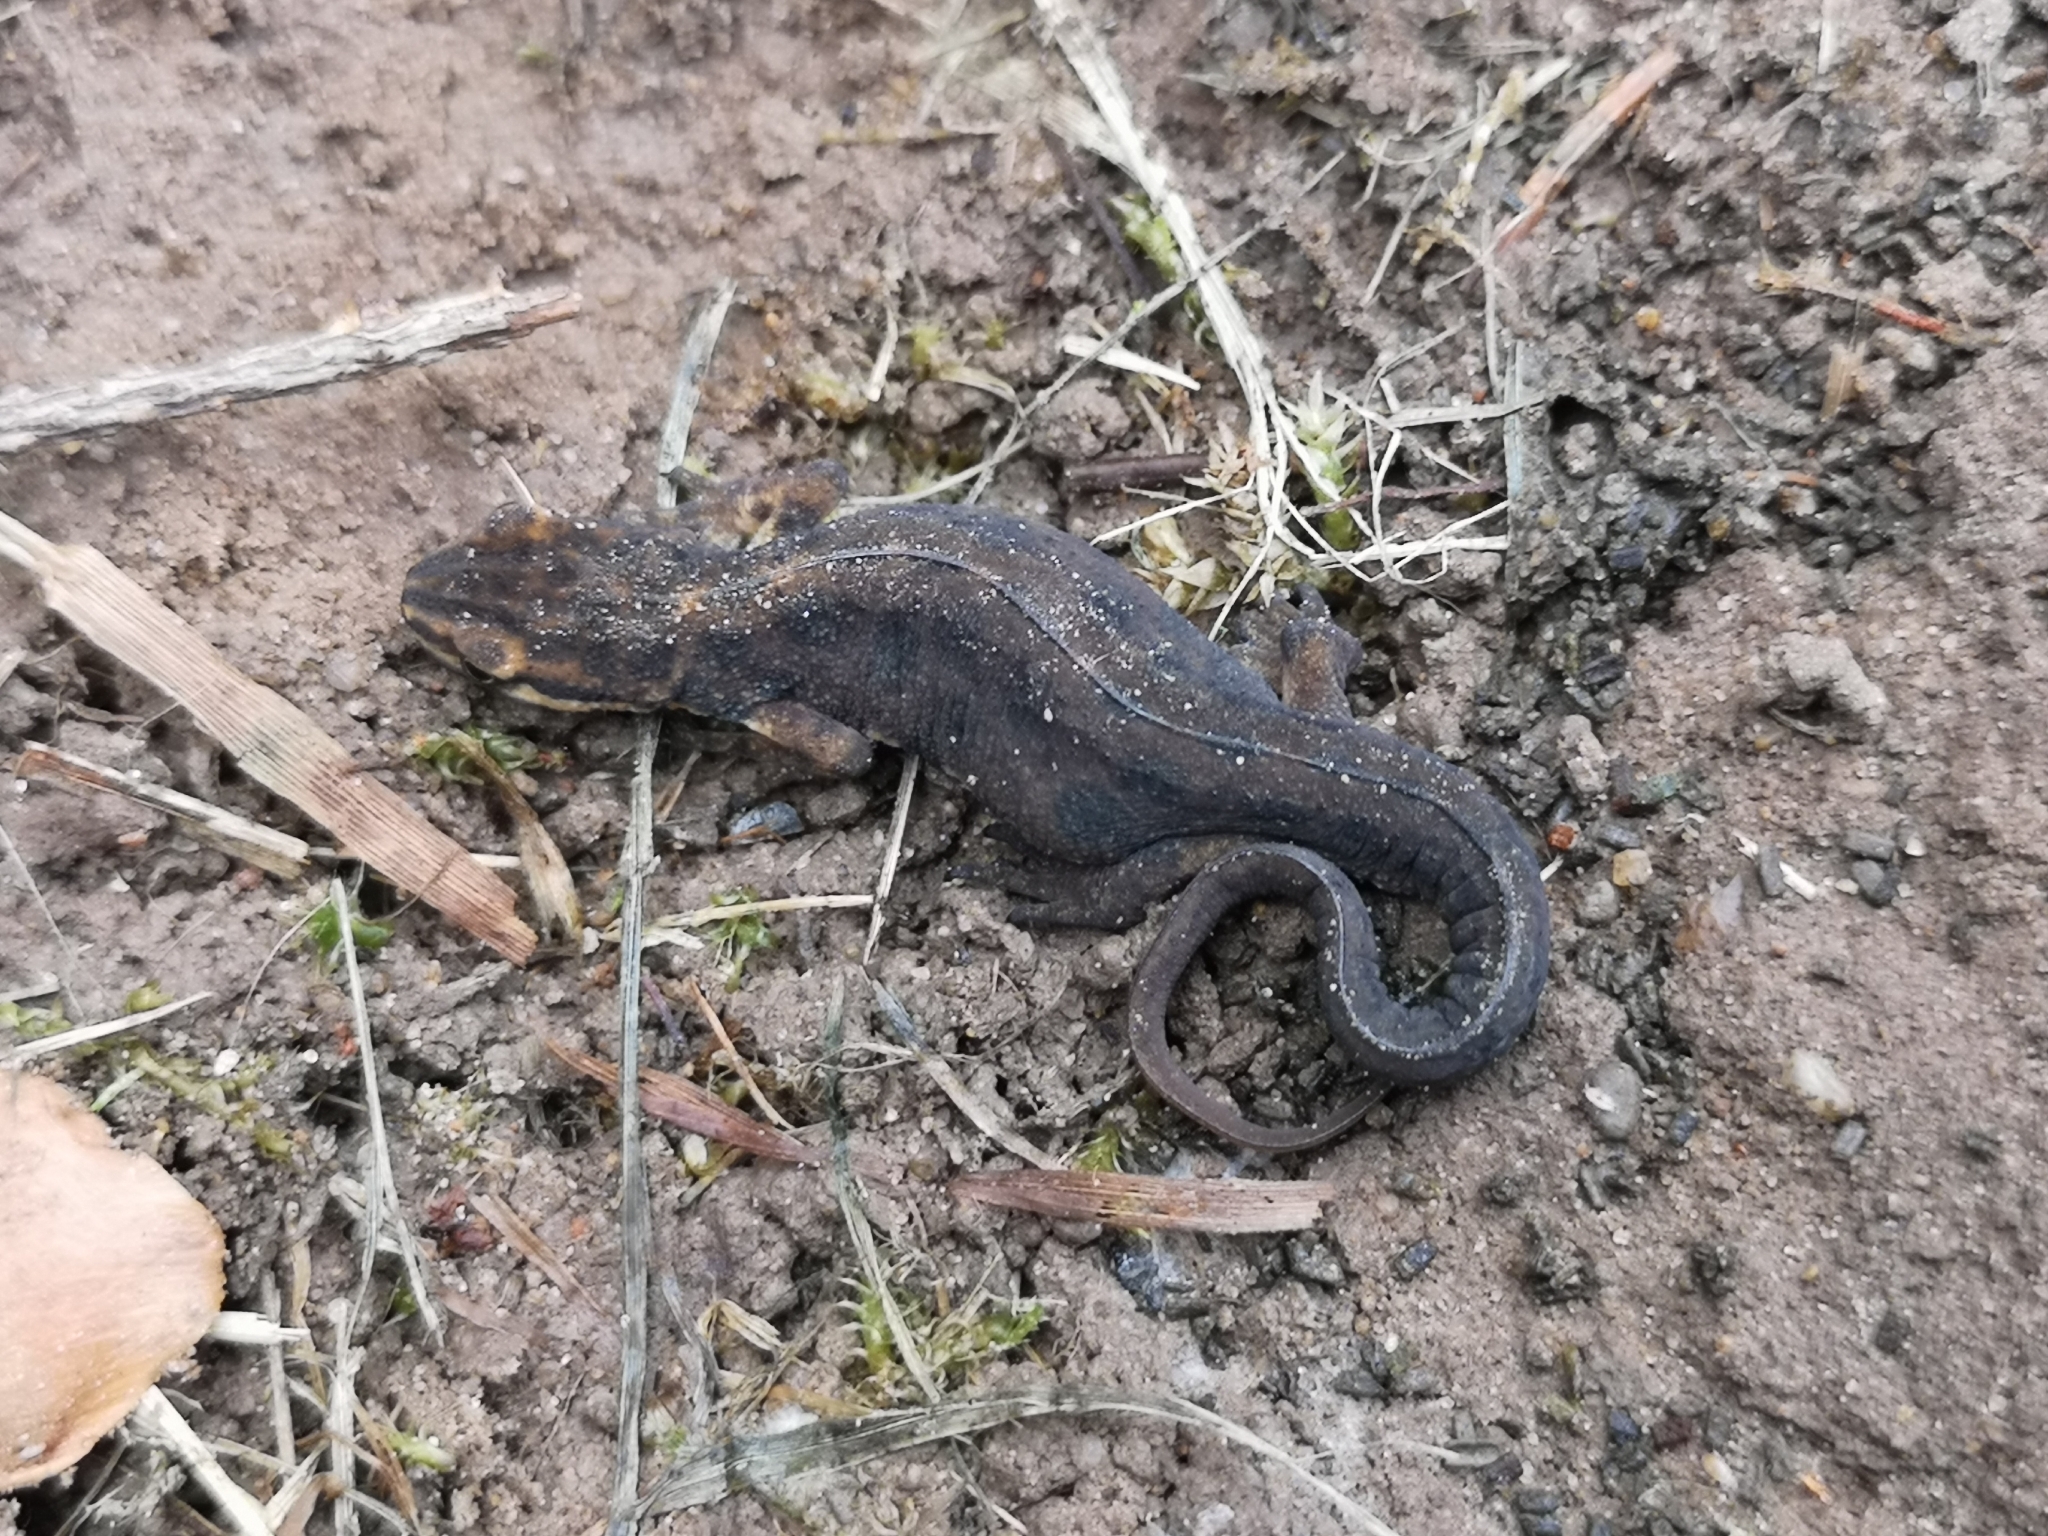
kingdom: Animalia
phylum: Chordata
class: Amphibia
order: Caudata
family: Salamandridae
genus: Lissotriton
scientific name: Lissotriton vulgaris
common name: Smooth newt
